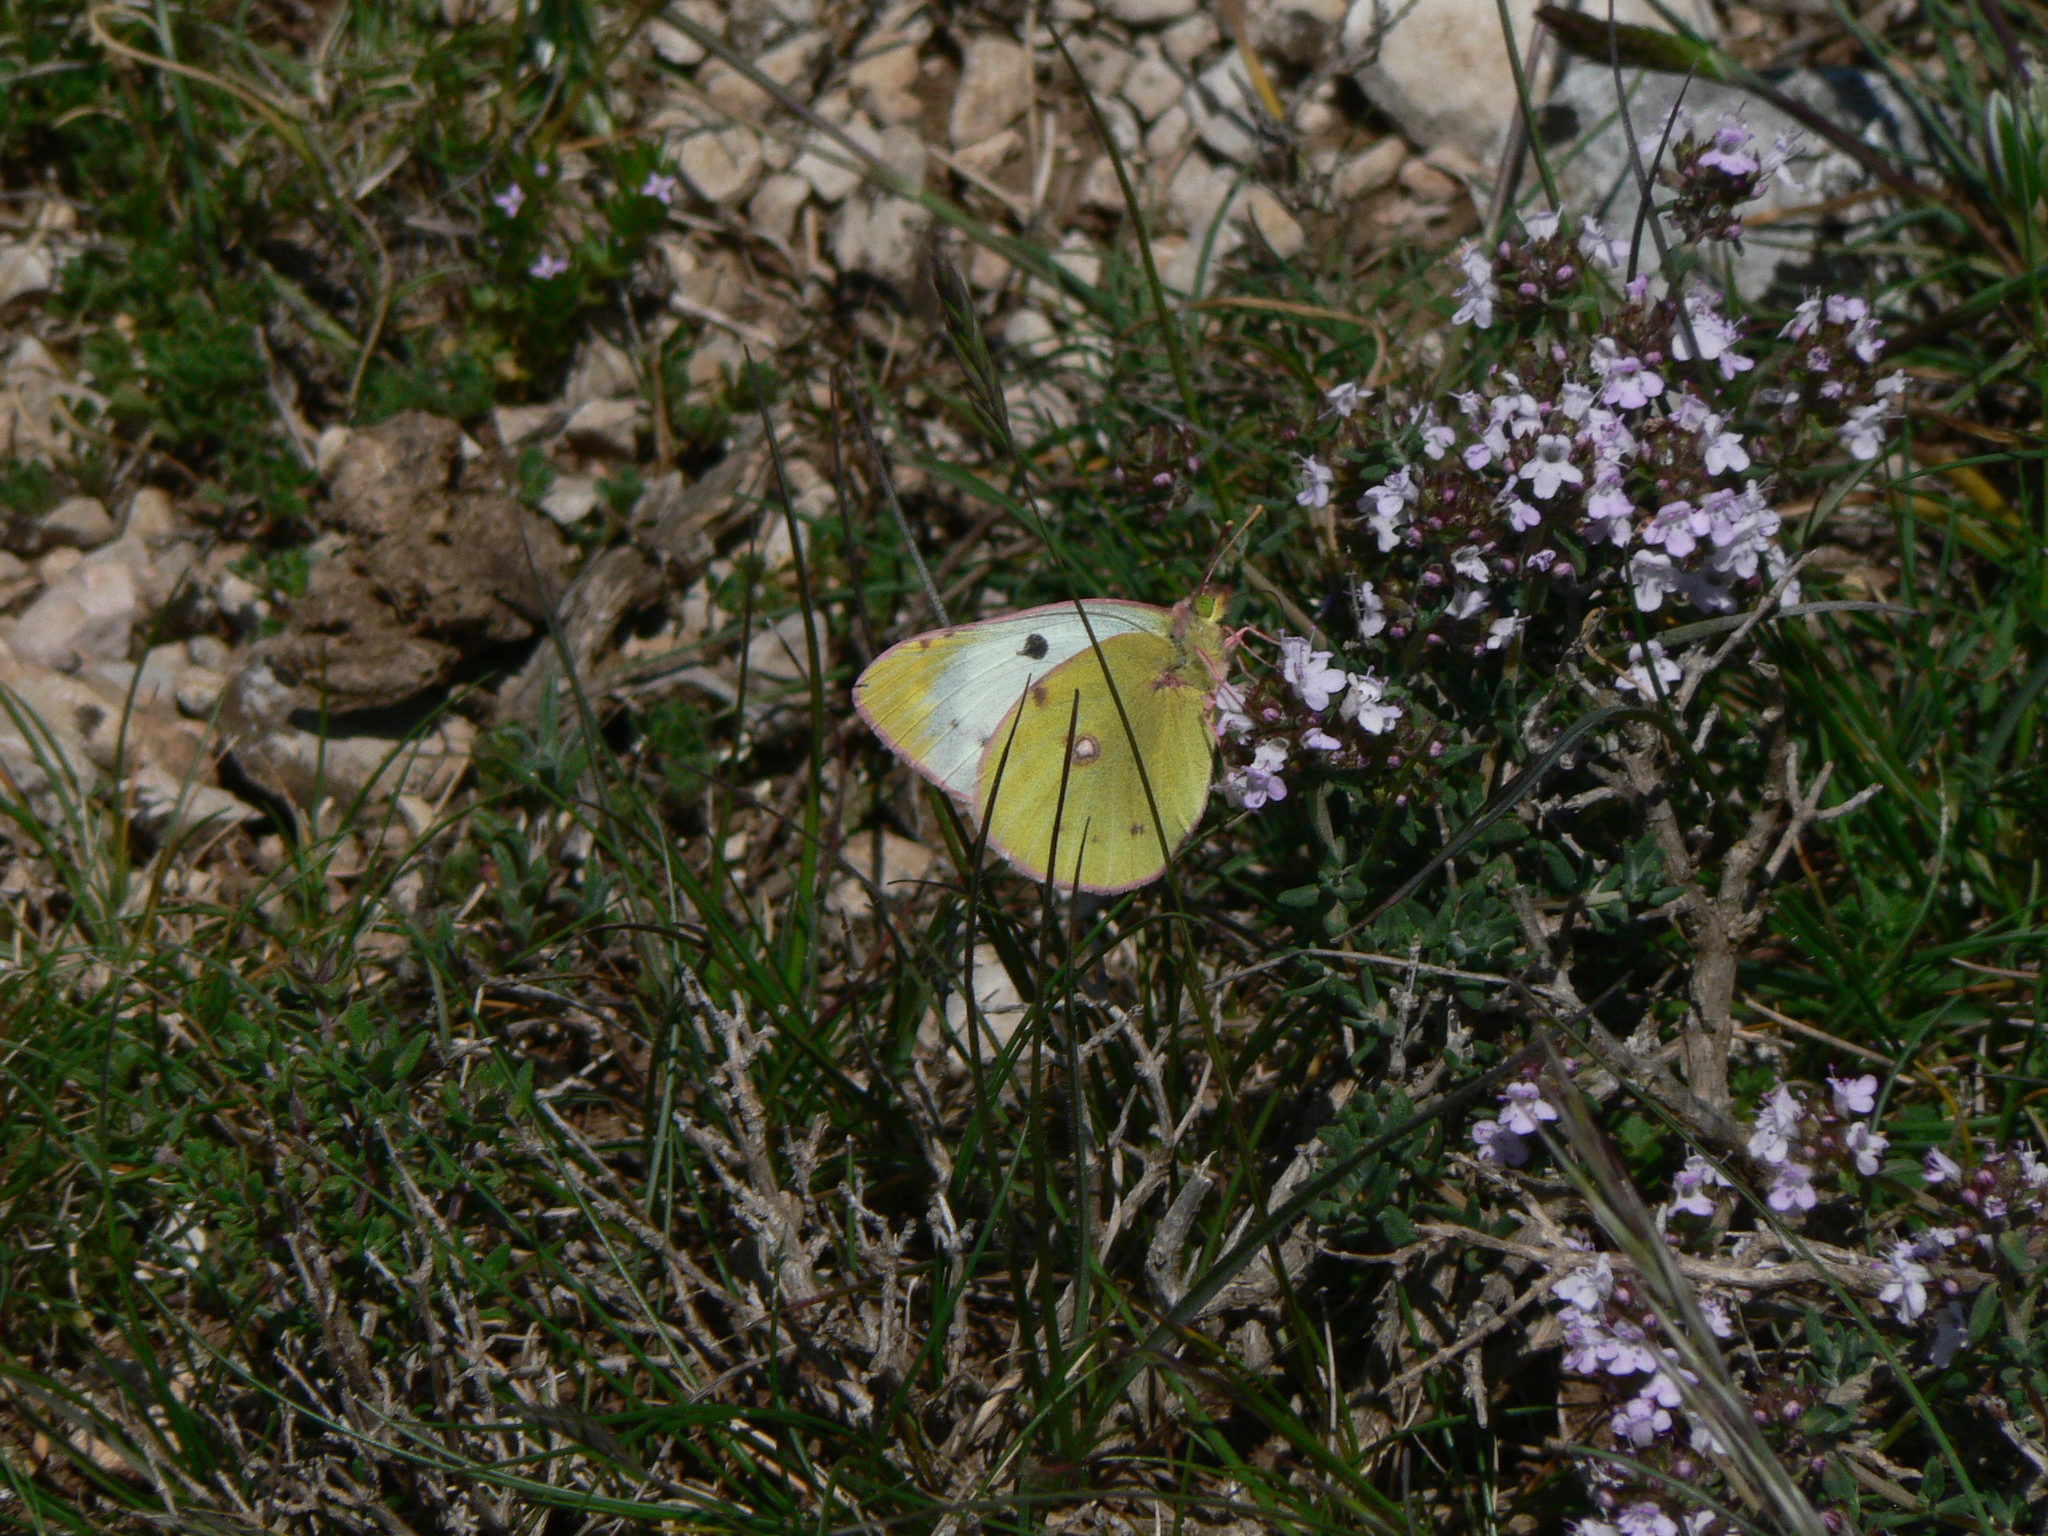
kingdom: Animalia
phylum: Arthropoda
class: Insecta
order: Lepidoptera
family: Pieridae
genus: Colias
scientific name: Colias alfacariensis
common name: Berger's clouded yellow
